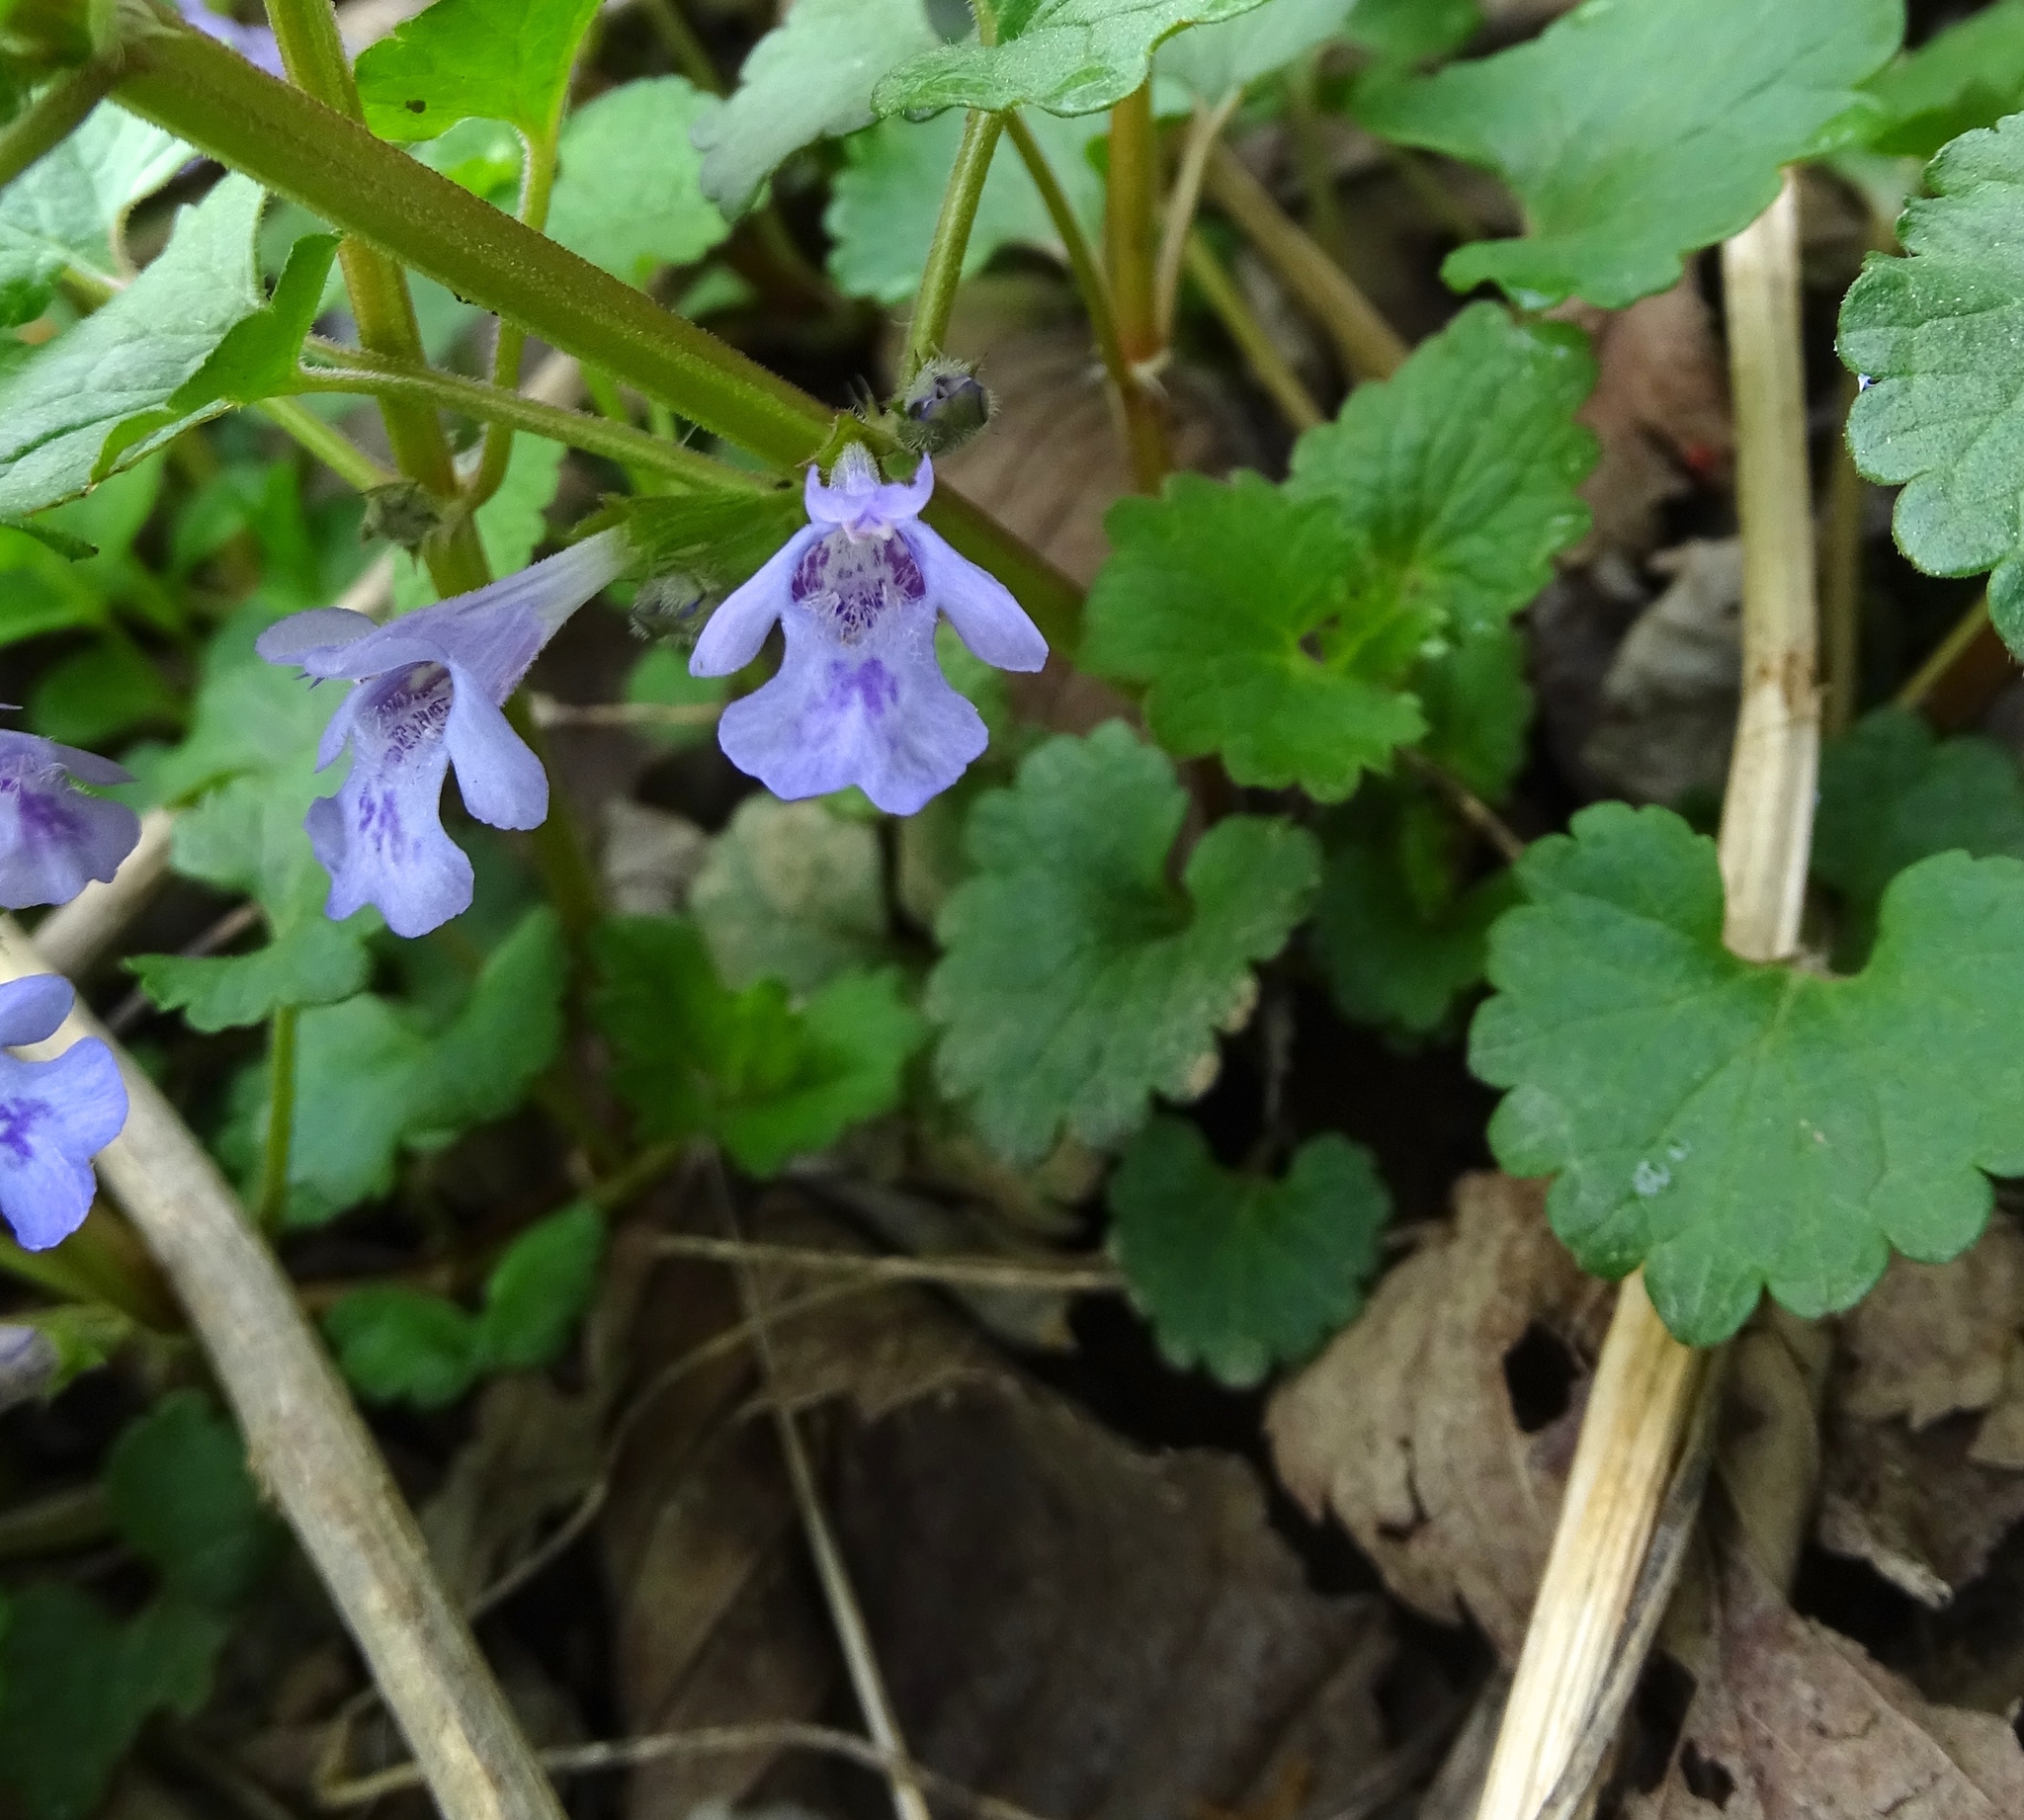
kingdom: Plantae
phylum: Tracheophyta
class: Magnoliopsida
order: Lamiales
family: Lamiaceae
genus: Glechoma
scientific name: Glechoma hederacea
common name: Ground ivy
